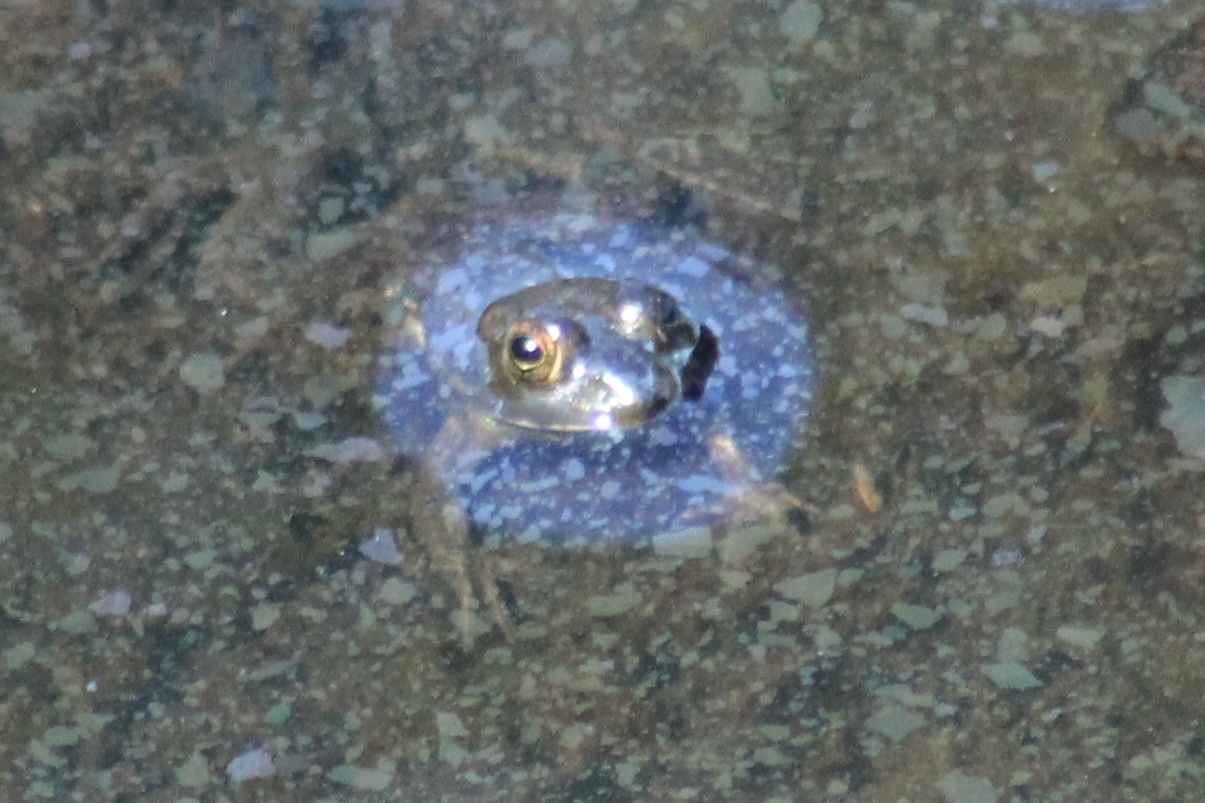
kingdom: Animalia
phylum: Chordata
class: Amphibia
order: Anura
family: Ranidae
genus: Lithobates
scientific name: Lithobates catesbeianus
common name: American bullfrog
